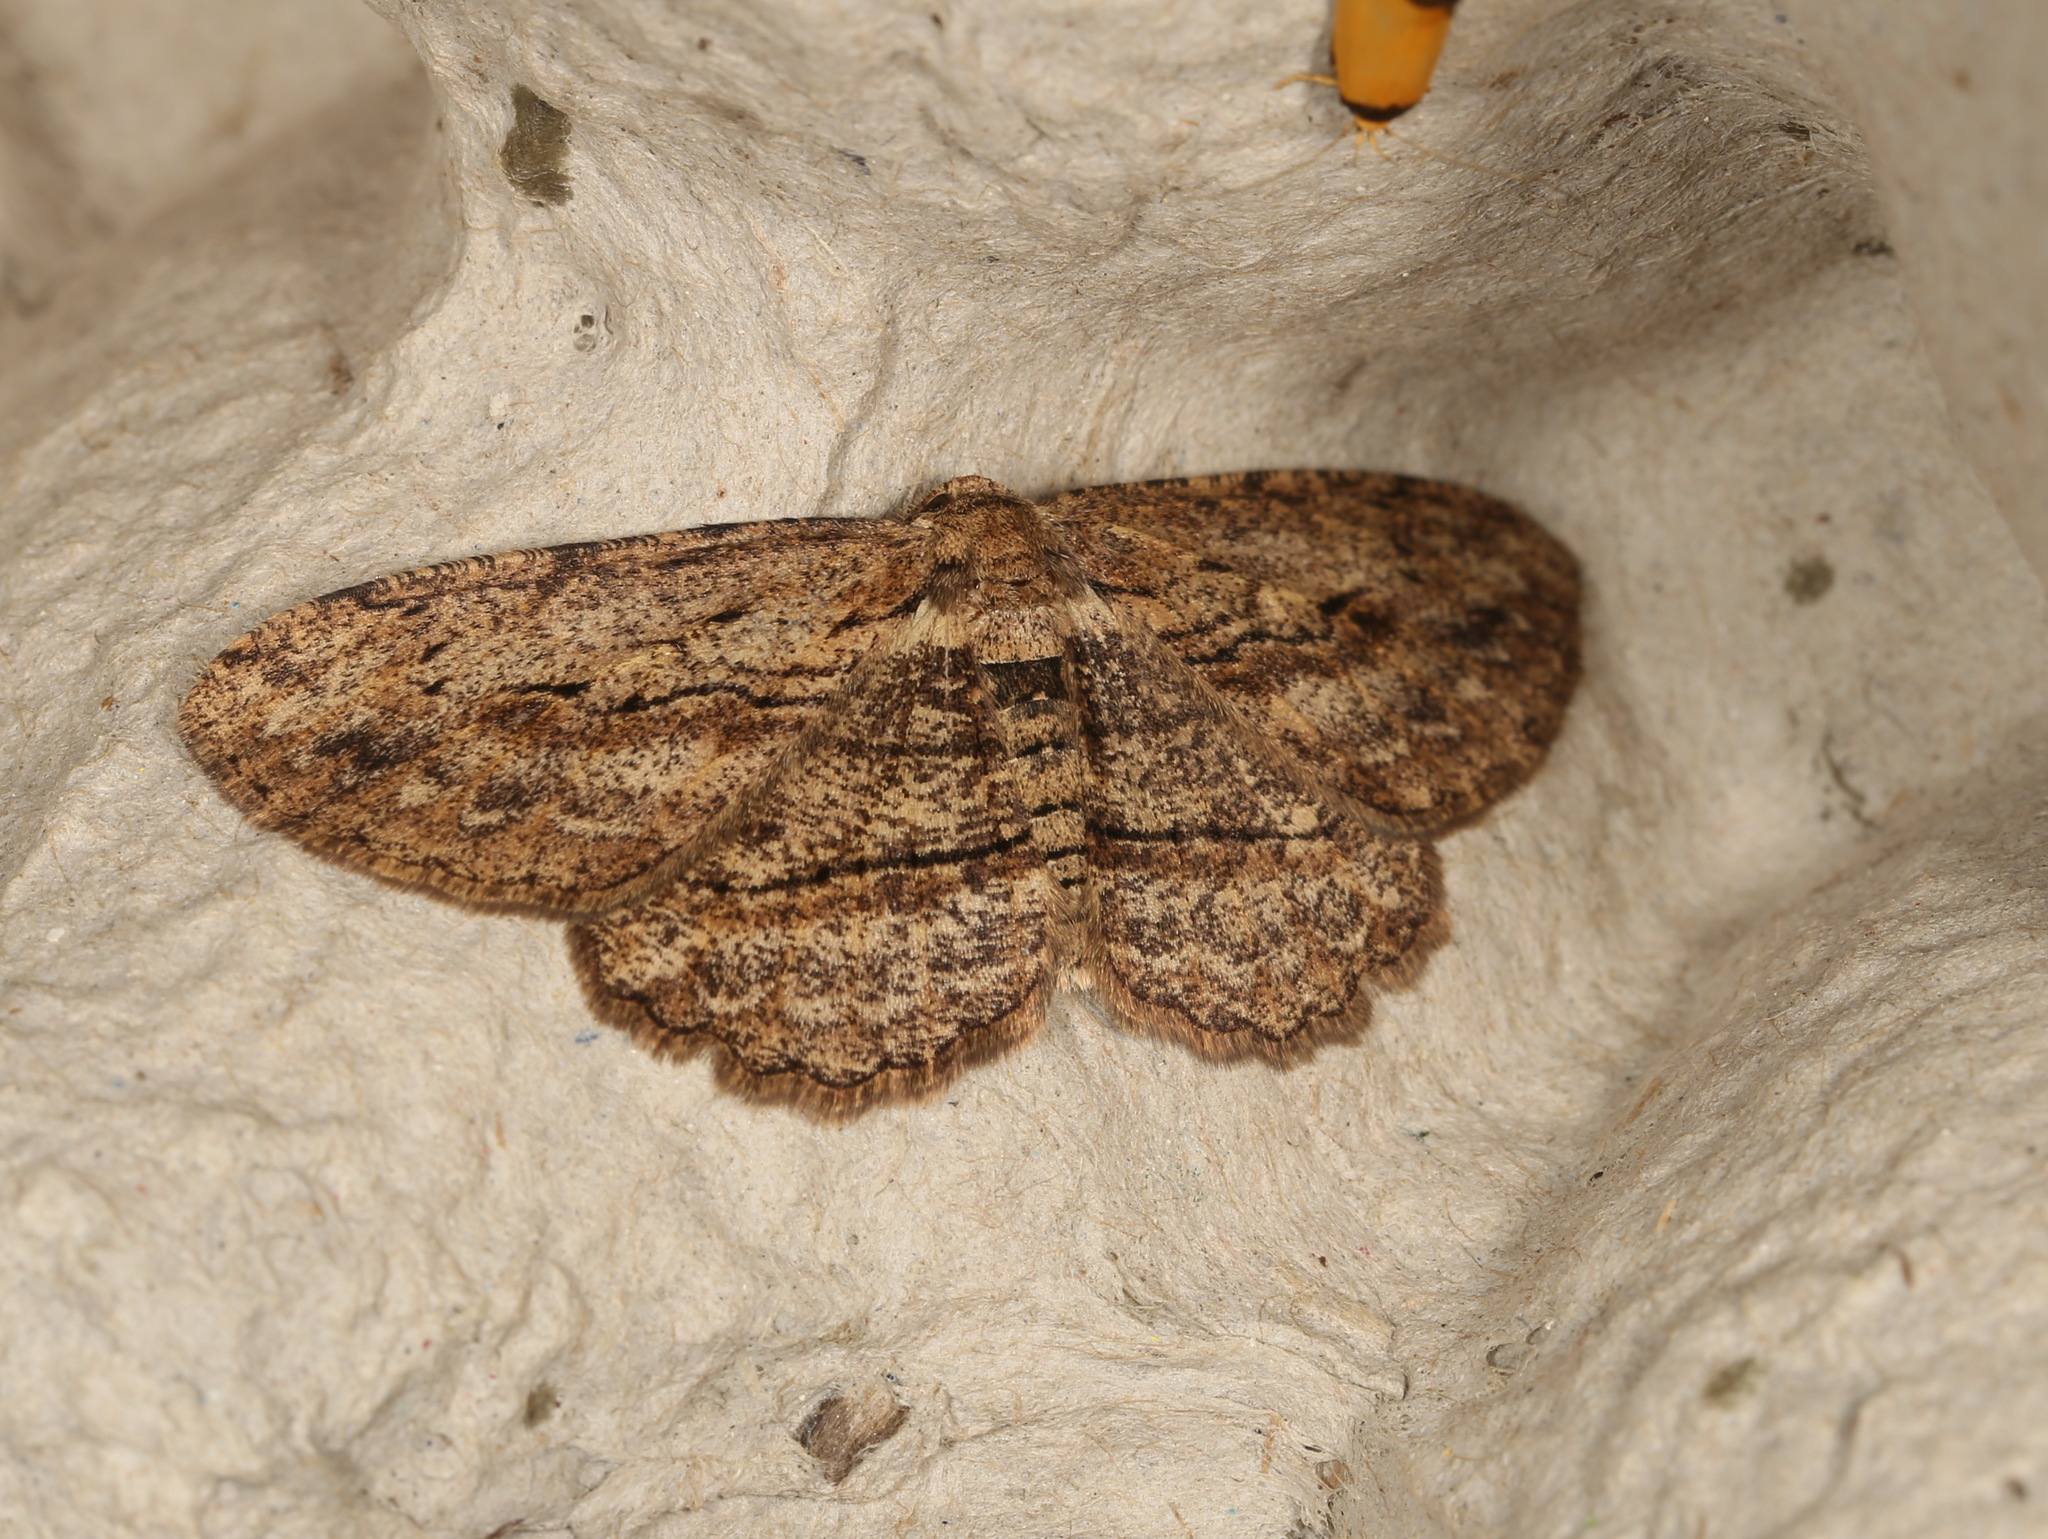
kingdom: Animalia
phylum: Arthropoda
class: Insecta
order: Lepidoptera
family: Geometridae
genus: Ectropis
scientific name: Ectropis excursaria
